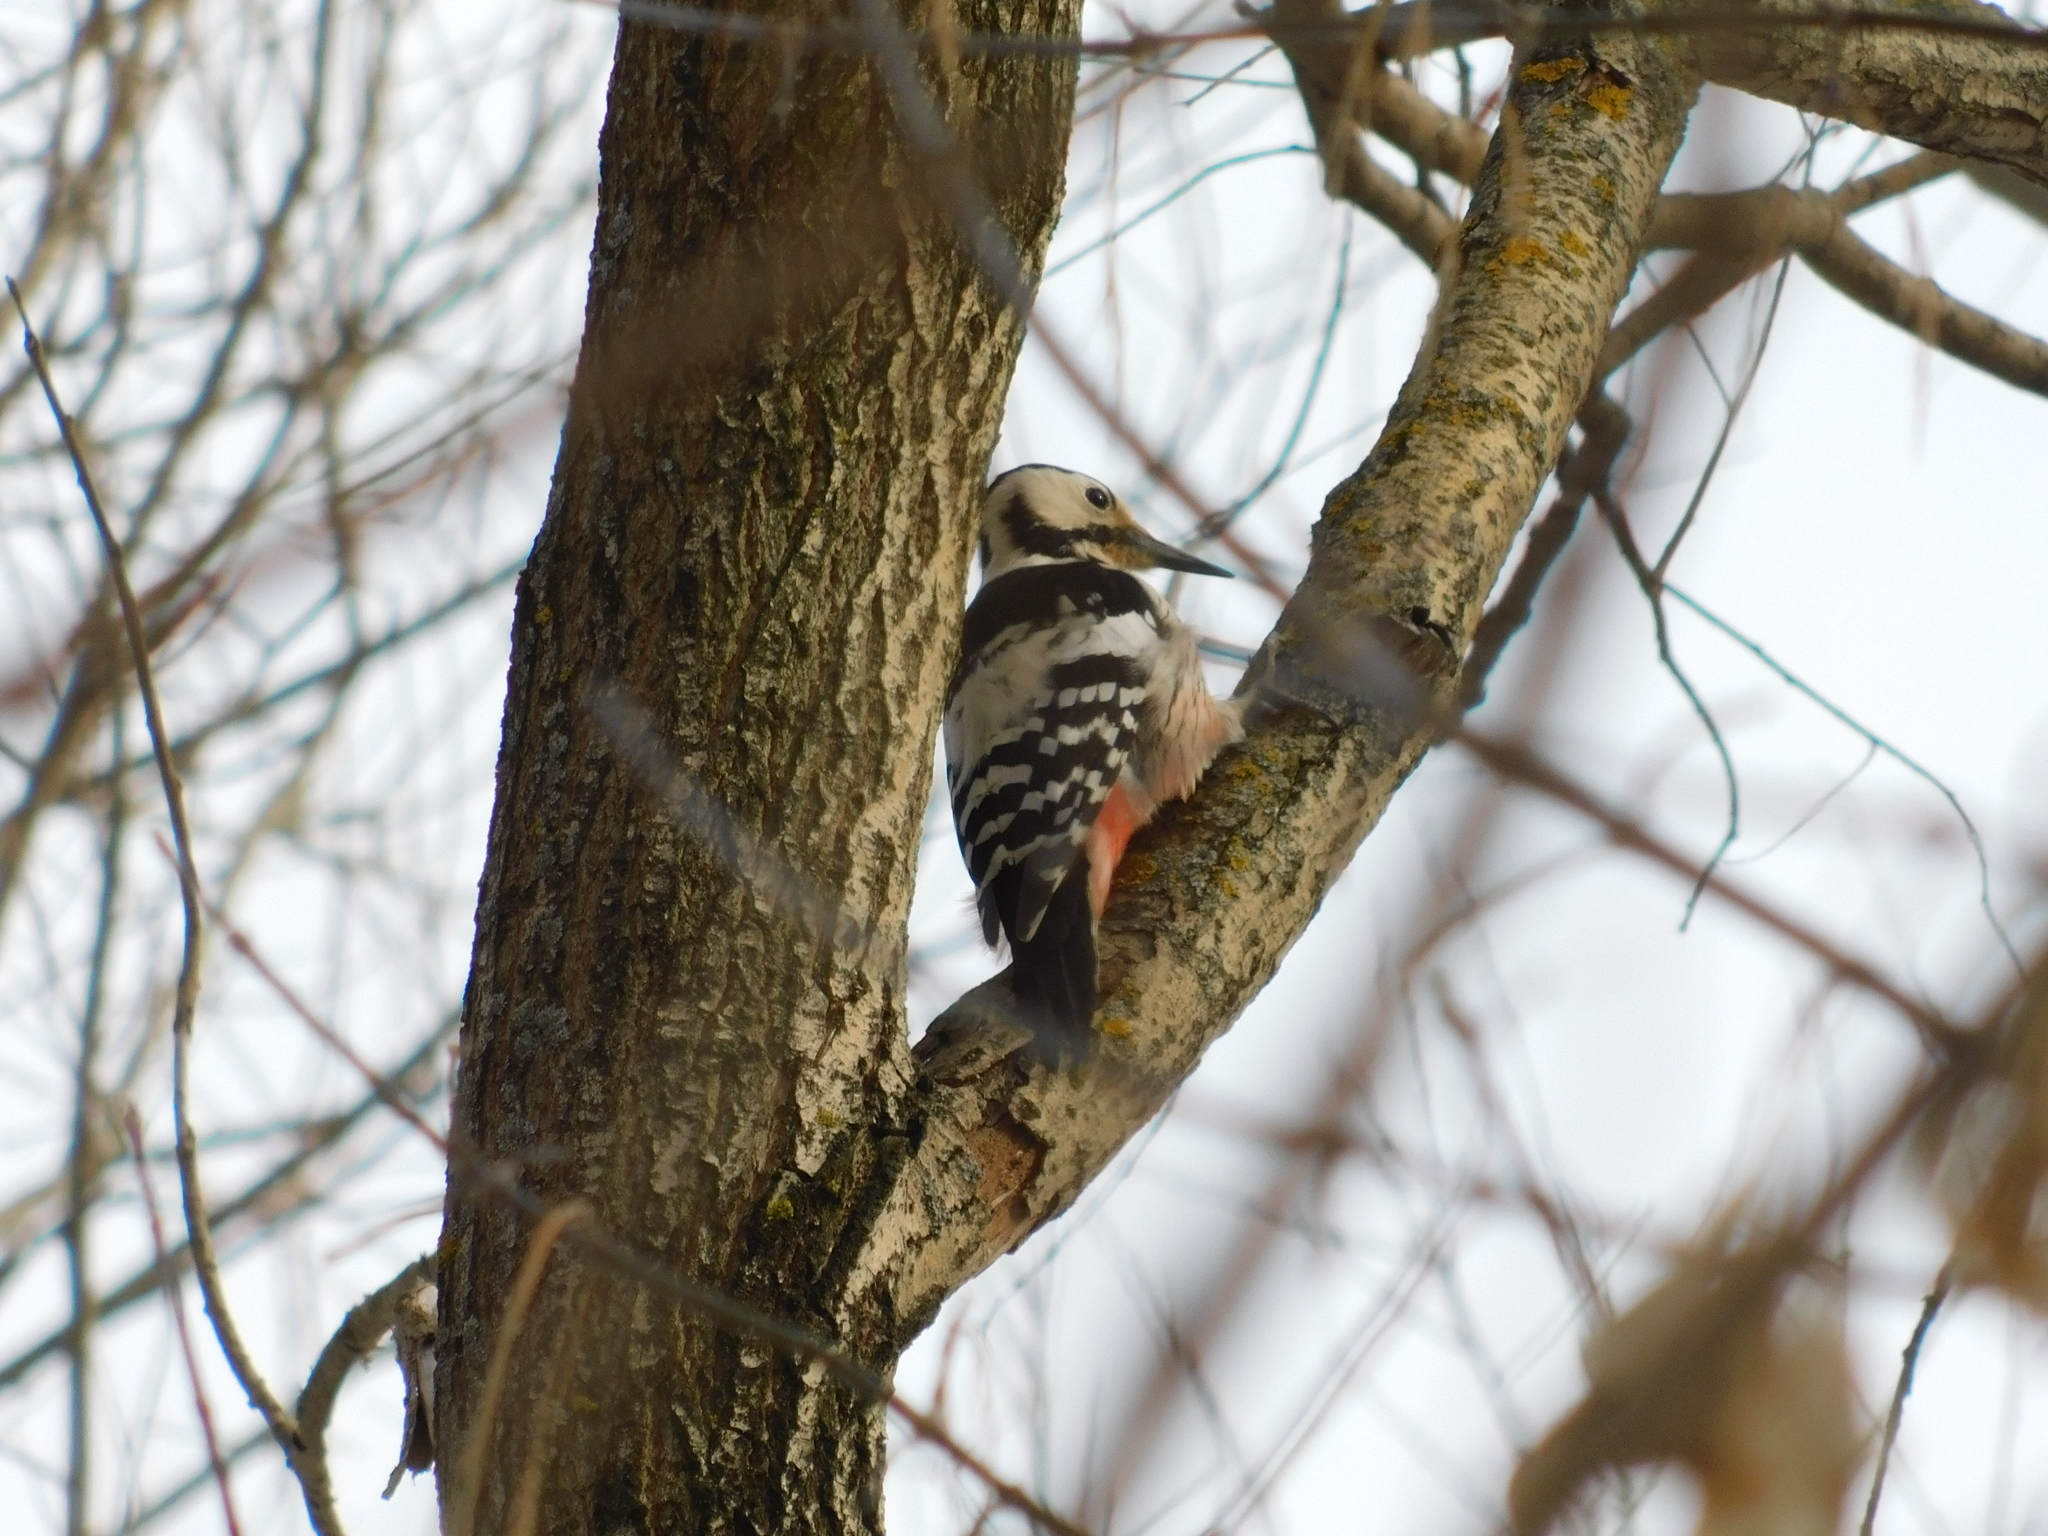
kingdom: Animalia
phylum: Chordata
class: Aves
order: Piciformes
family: Picidae
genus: Dendrocopos
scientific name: Dendrocopos leucotos
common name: White-backed woodpecker
